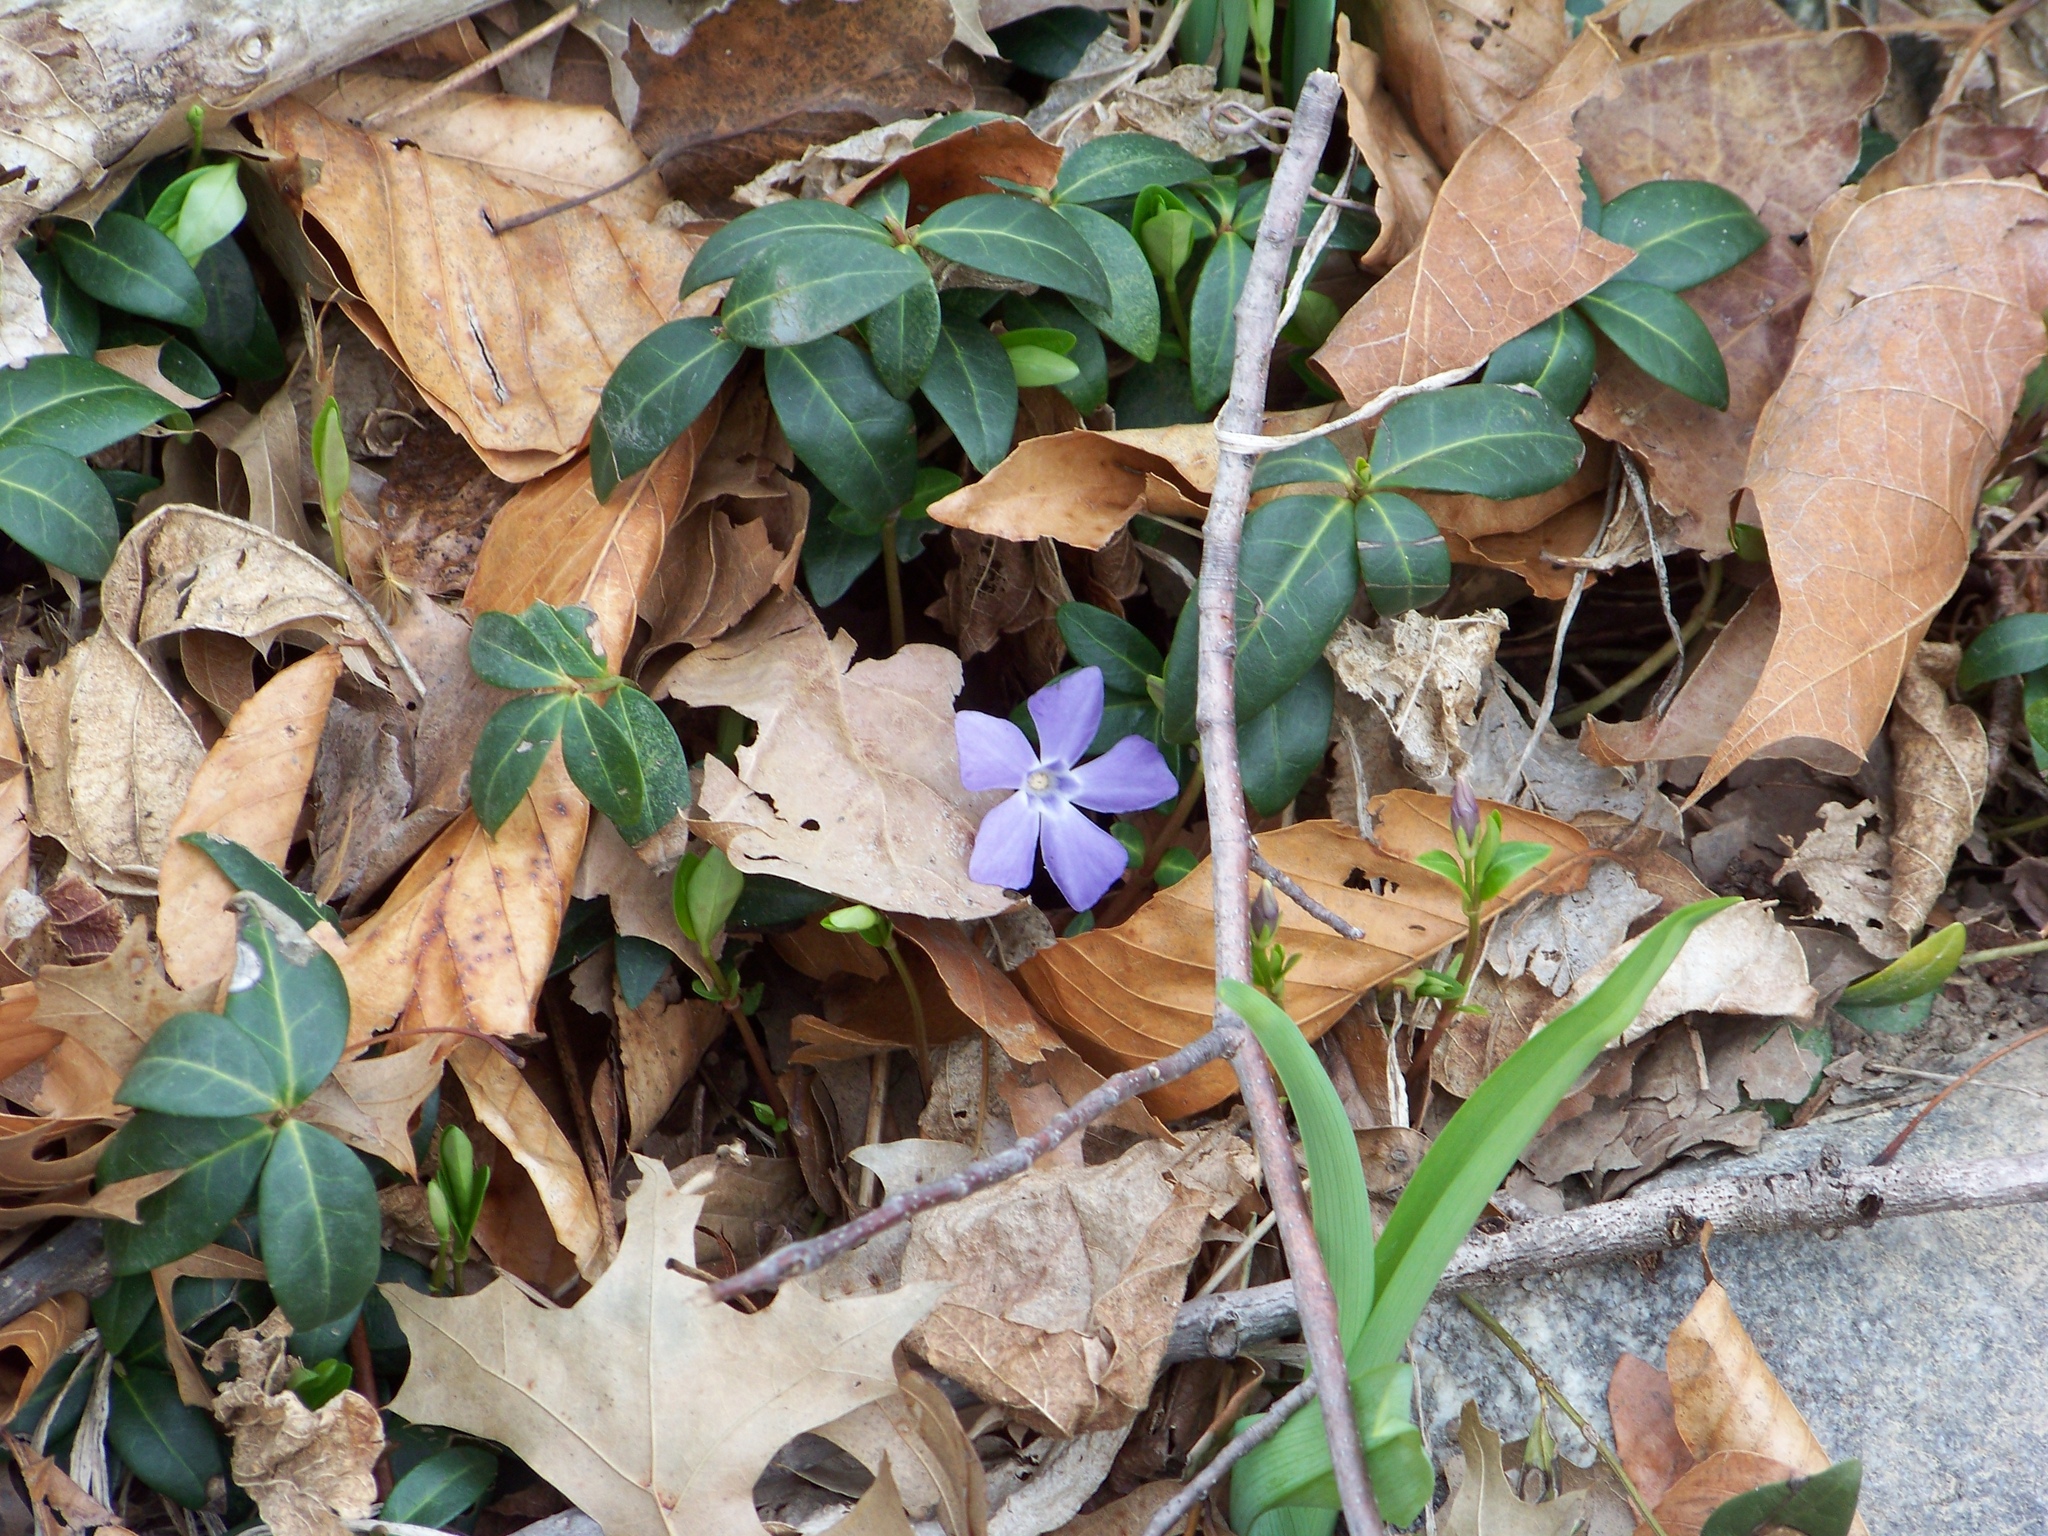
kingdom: Plantae
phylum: Tracheophyta
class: Magnoliopsida
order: Gentianales
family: Apocynaceae
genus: Vinca
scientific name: Vinca minor
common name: Lesser periwinkle
